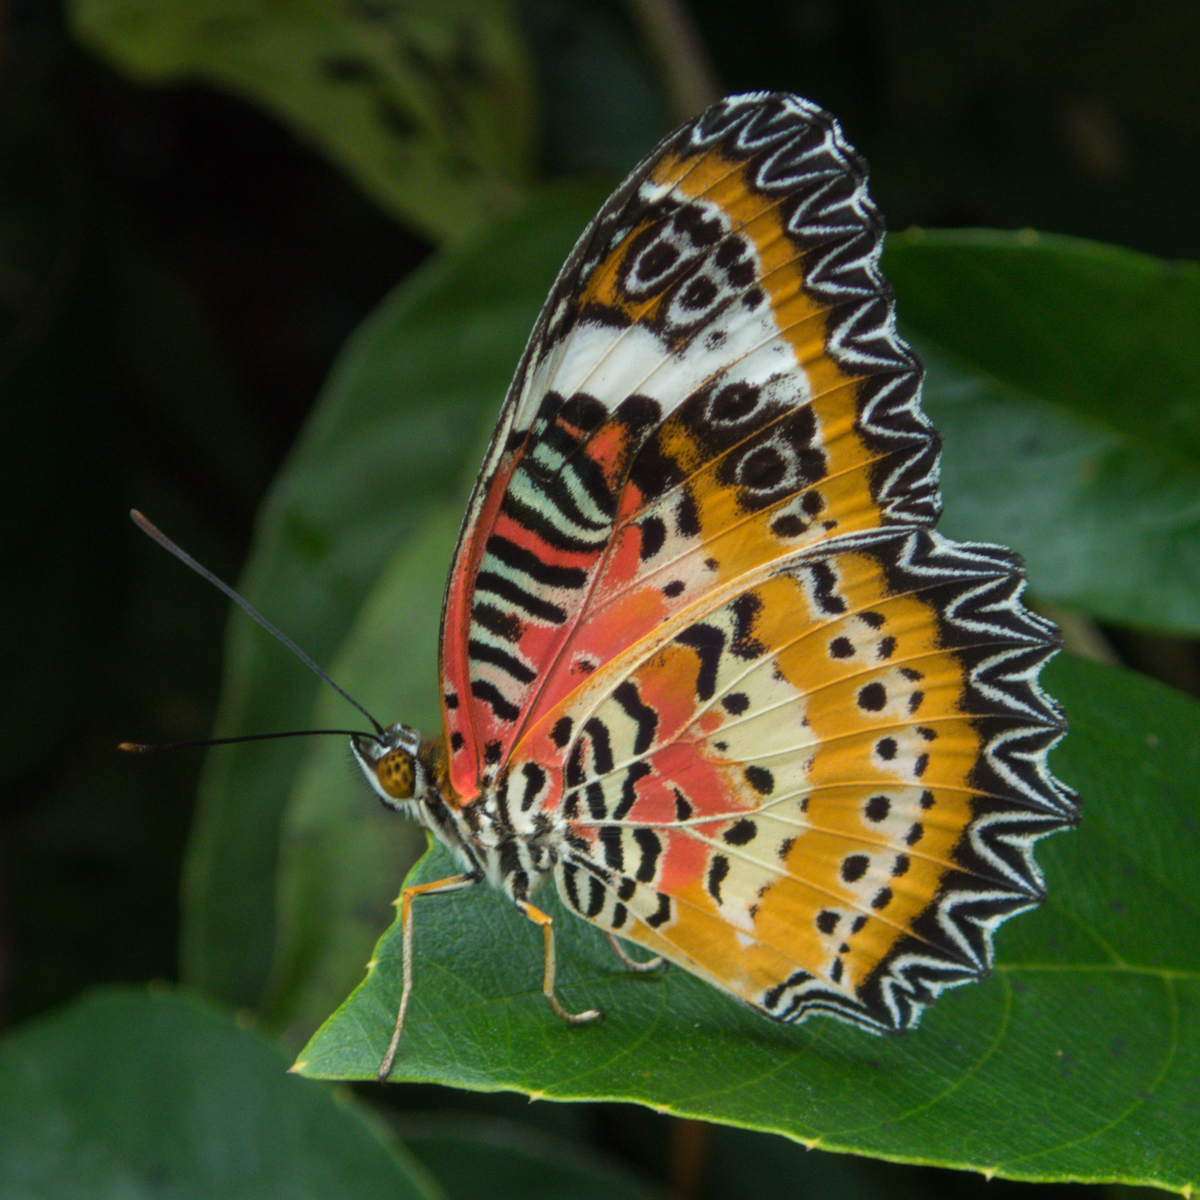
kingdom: Animalia
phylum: Arthropoda
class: Insecta
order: Lepidoptera
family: Nymphalidae
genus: Cethosia
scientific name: Cethosia cyane
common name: Leopard lacewing butterfly
